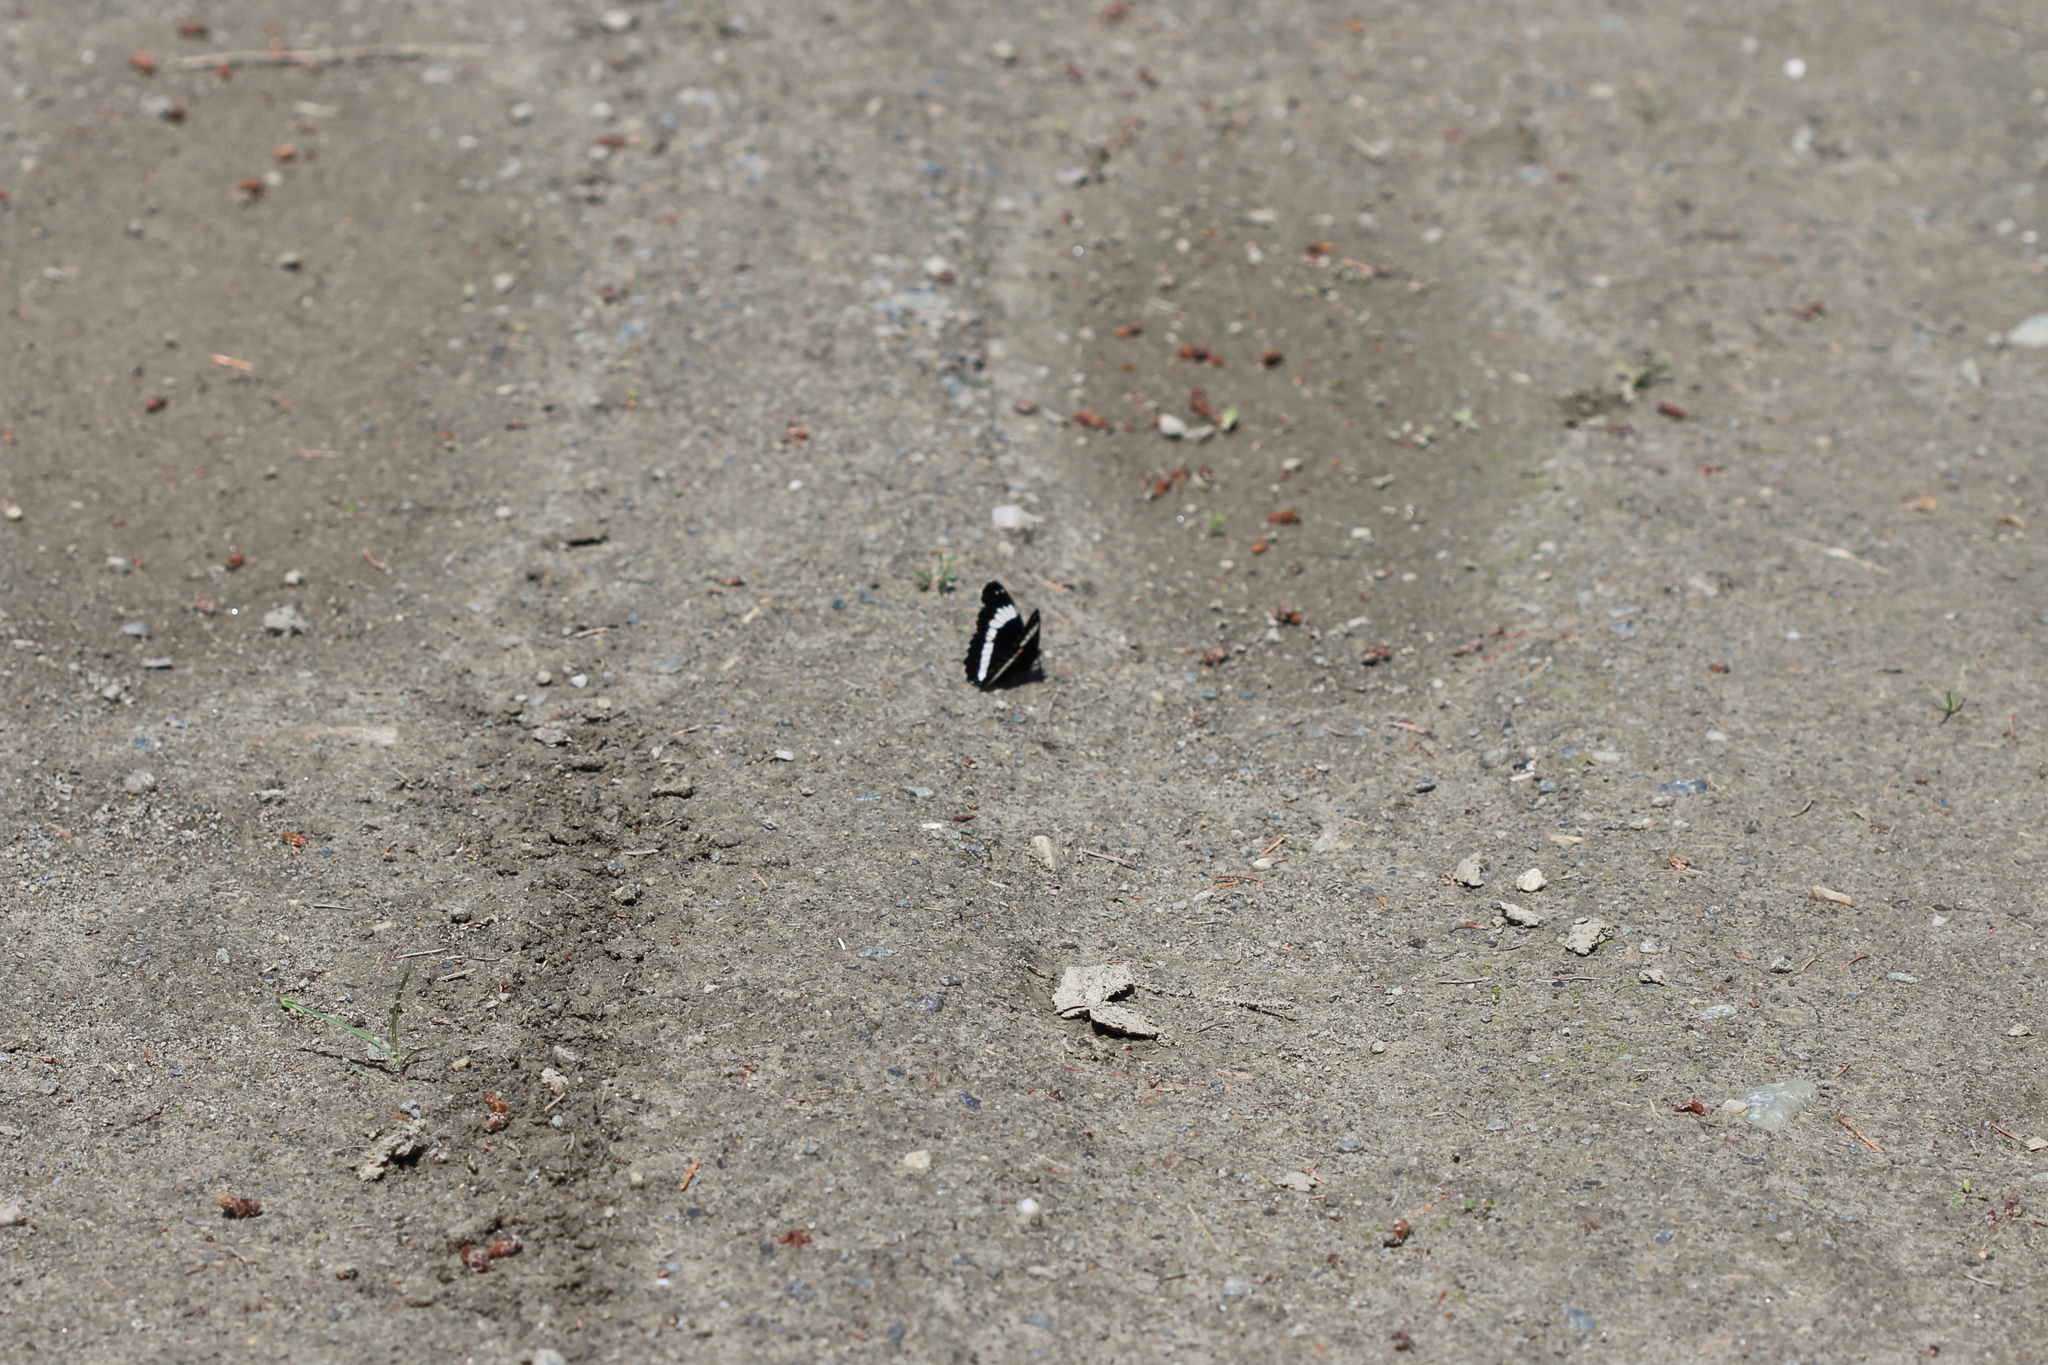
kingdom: Animalia
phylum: Arthropoda
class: Insecta
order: Lepidoptera
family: Nymphalidae
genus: Limenitis
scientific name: Limenitis arthemis
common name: Red-spotted admiral
